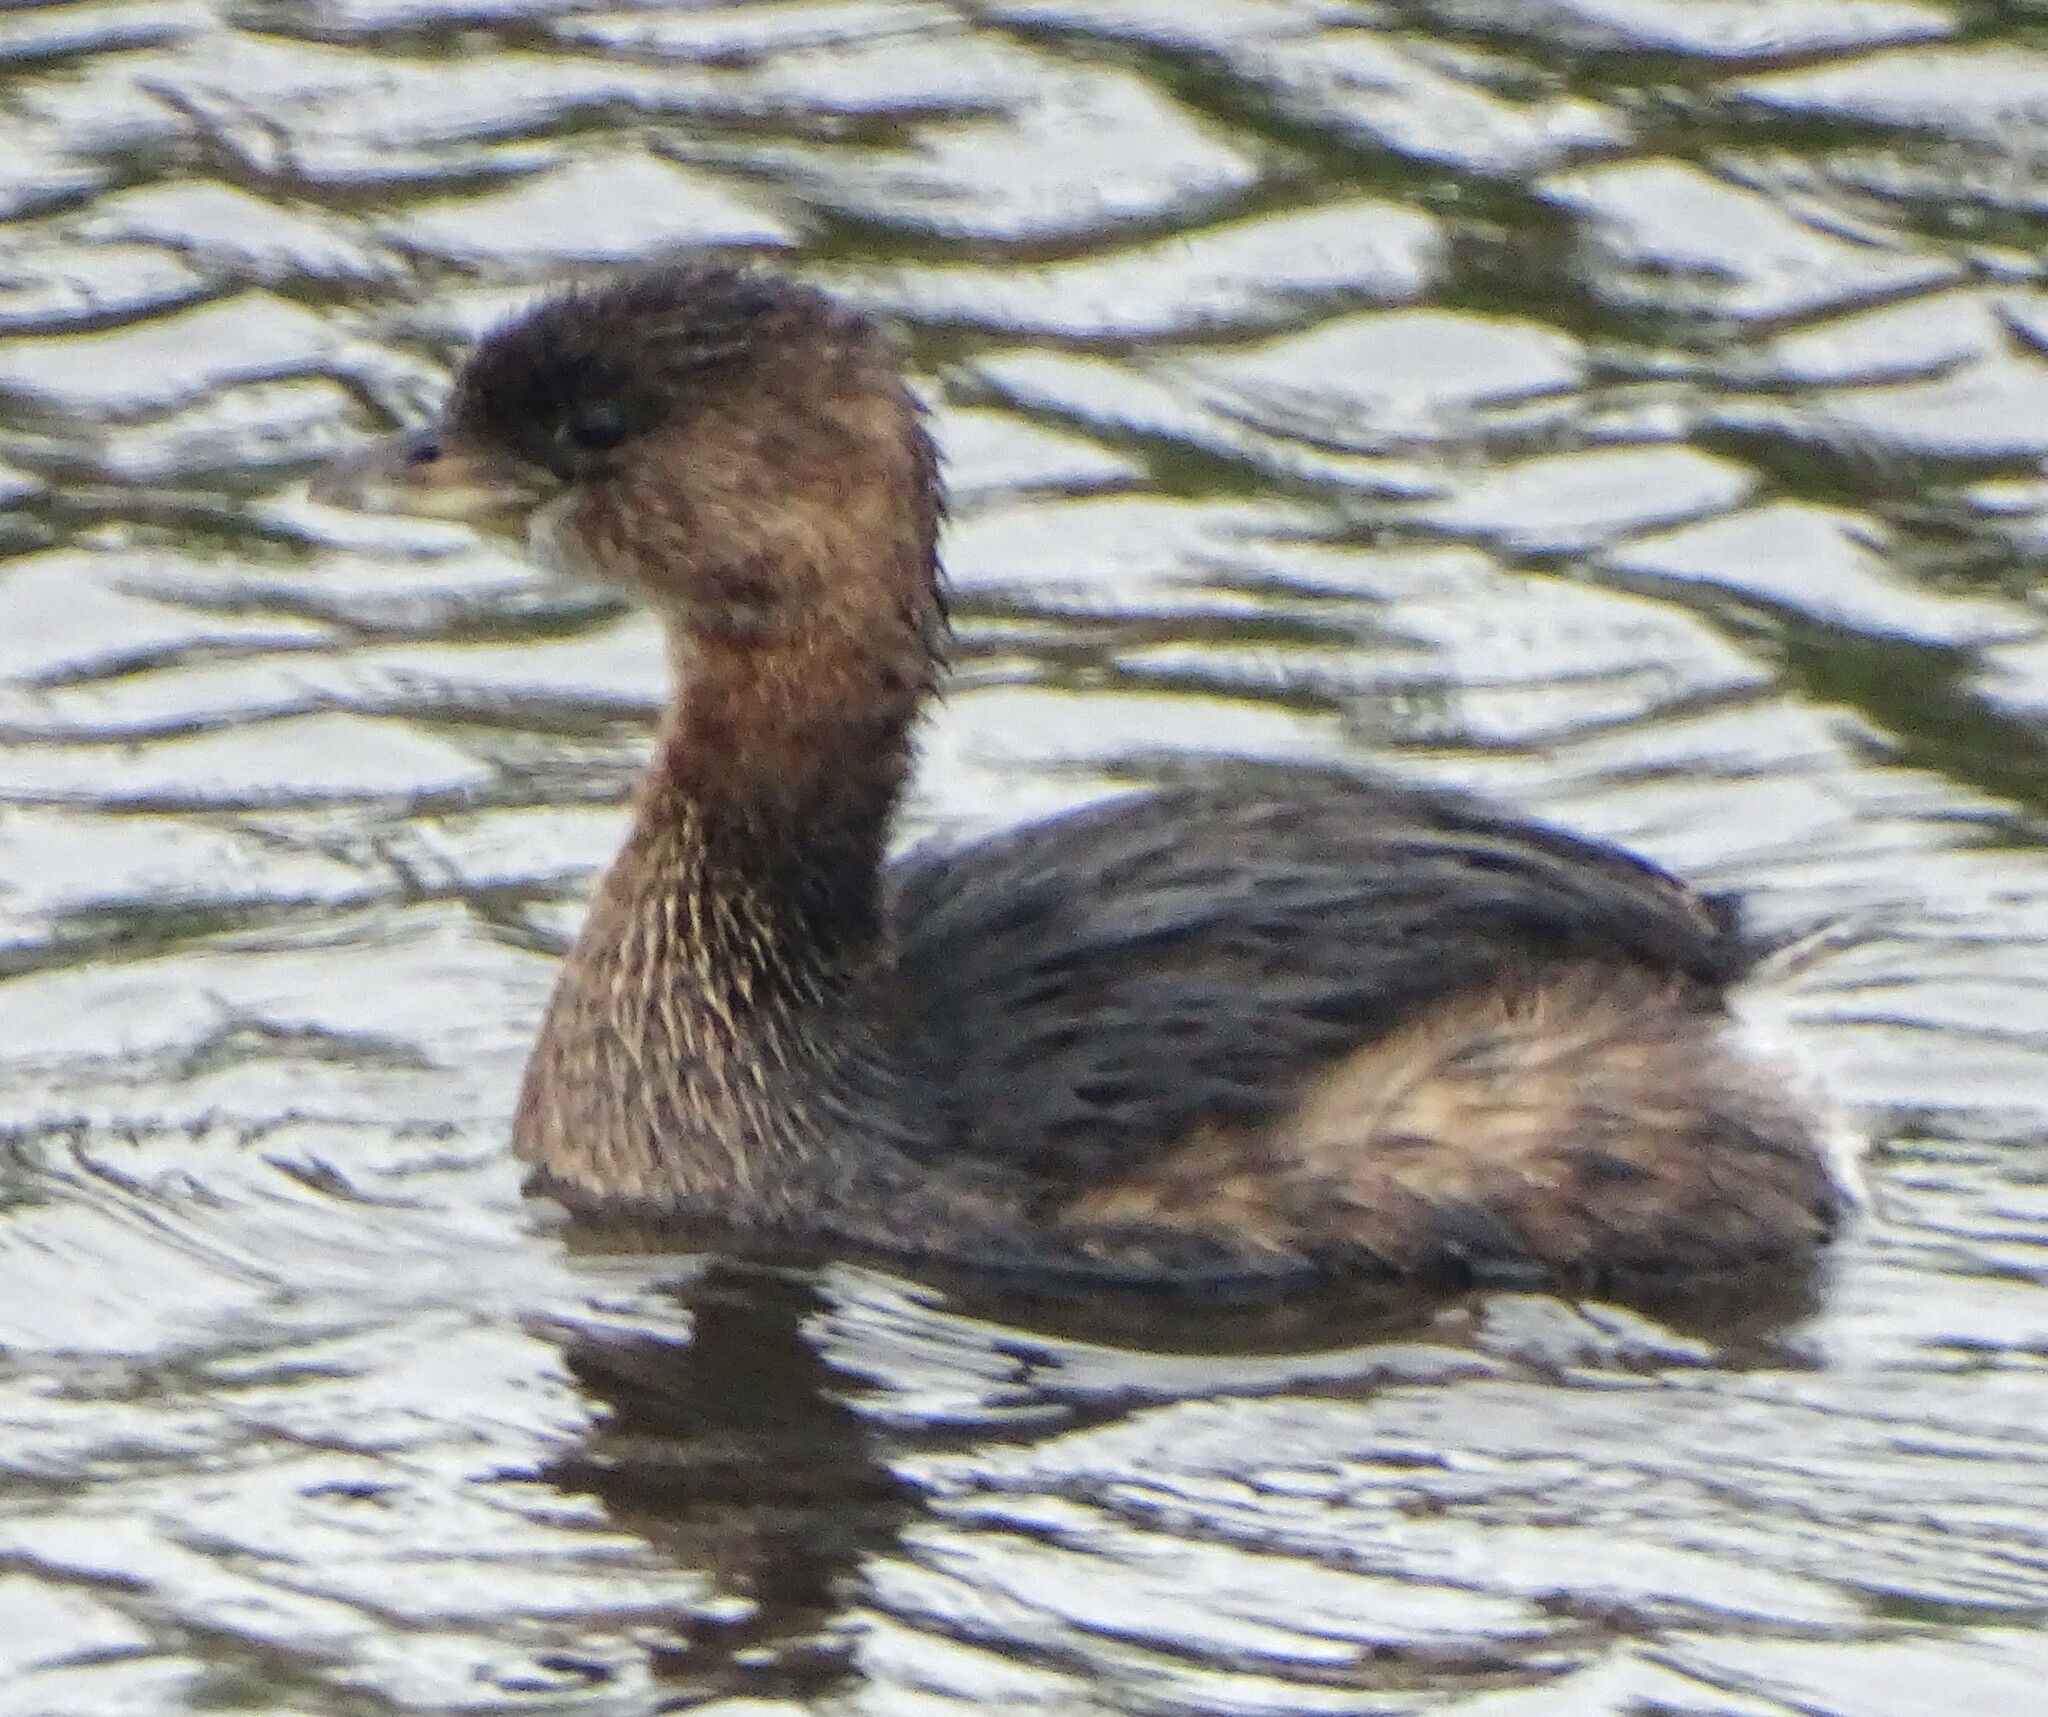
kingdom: Animalia
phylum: Chordata
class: Aves
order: Podicipediformes
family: Podicipedidae
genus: Podilymbus
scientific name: Podilymbus podiceps
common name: Pied-billed grebe
